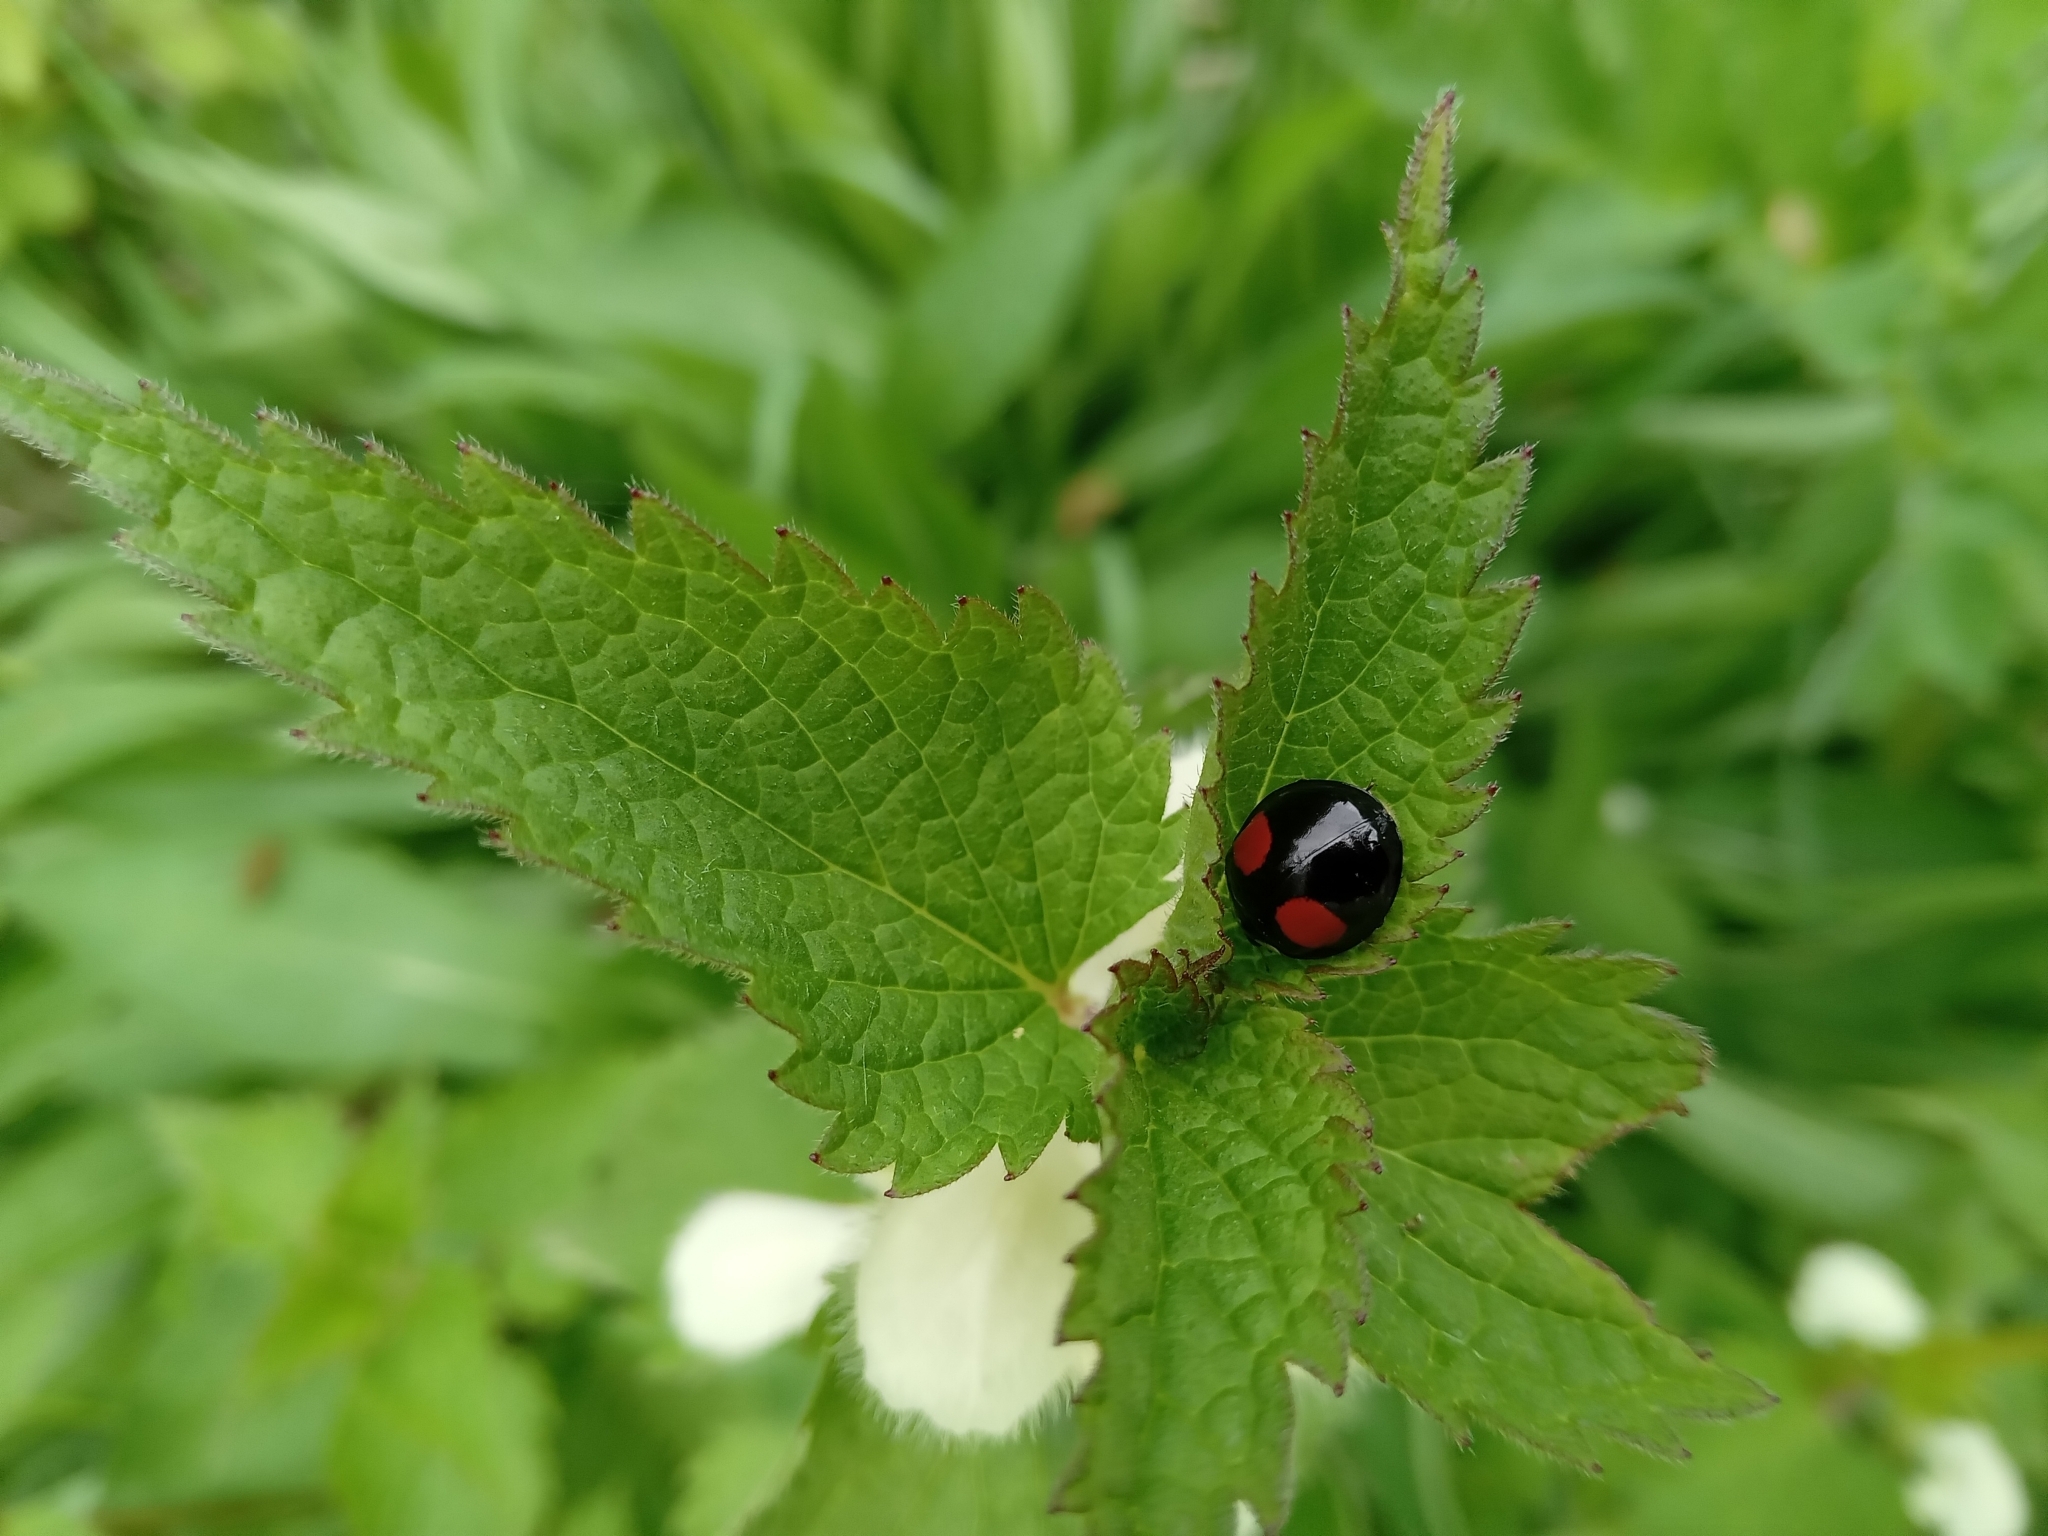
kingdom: Animalia
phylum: Arthropoda
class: Insecta
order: Coleoptera
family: Coccinellidae
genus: Harmonia
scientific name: Harmonia axyridis
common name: Harlequin ladybird
